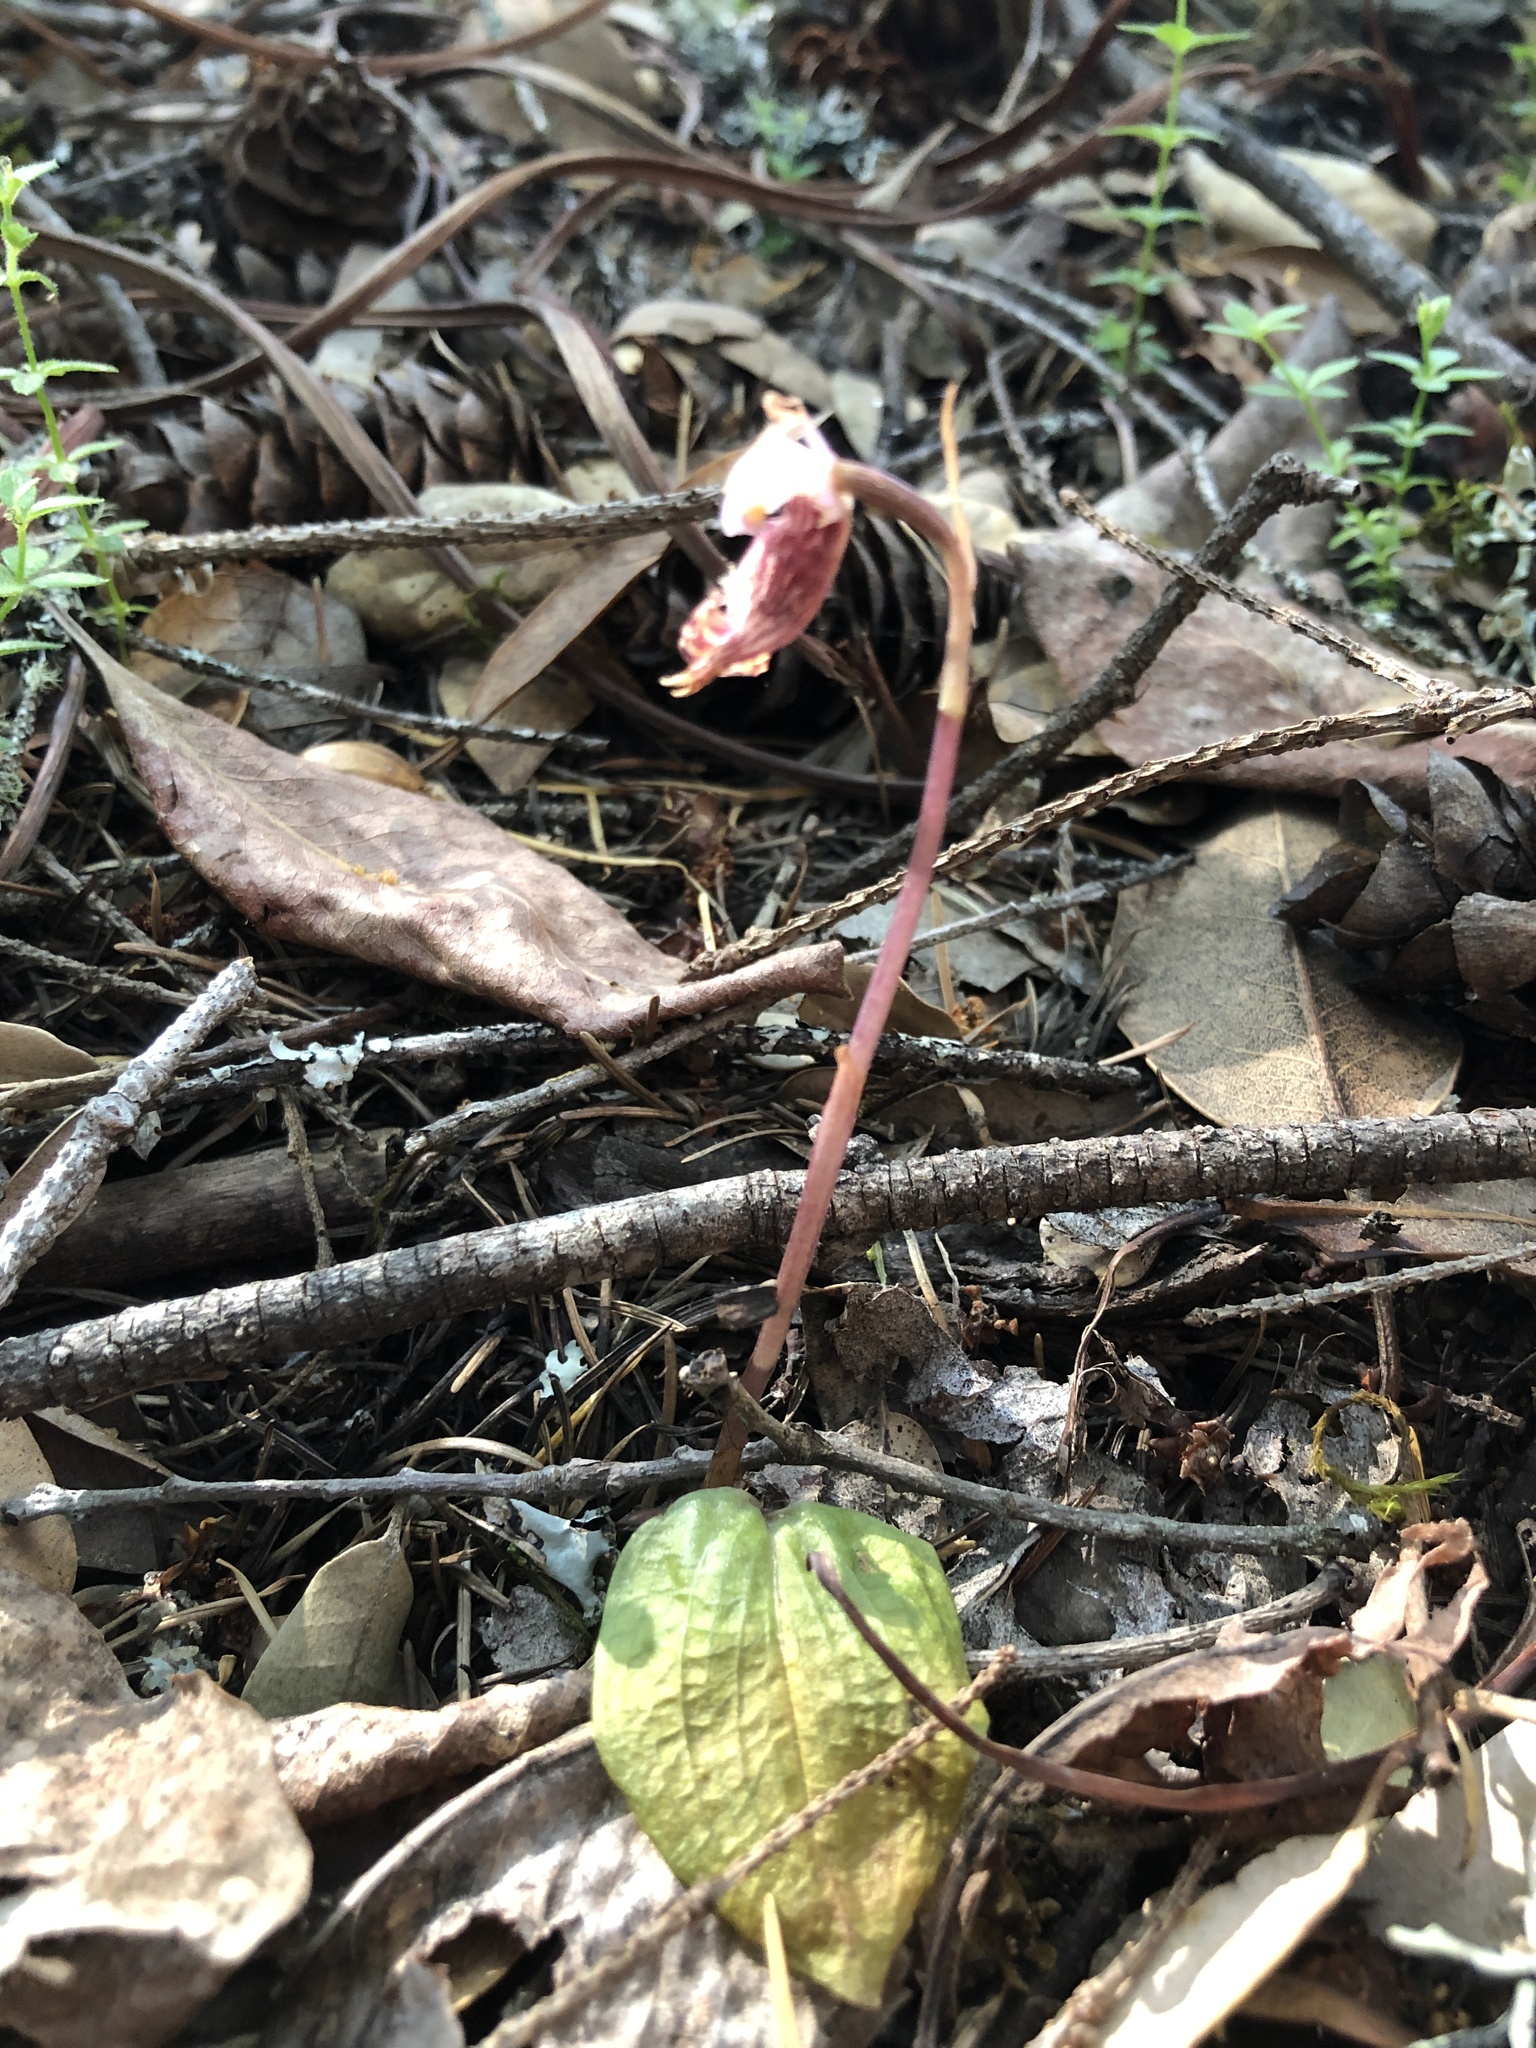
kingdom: Plantae
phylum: Tracheophyta
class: Liliopsida
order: Asparagales
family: Orchidaceae
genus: Calypso
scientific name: Calypso bulbosa
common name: Calypso
